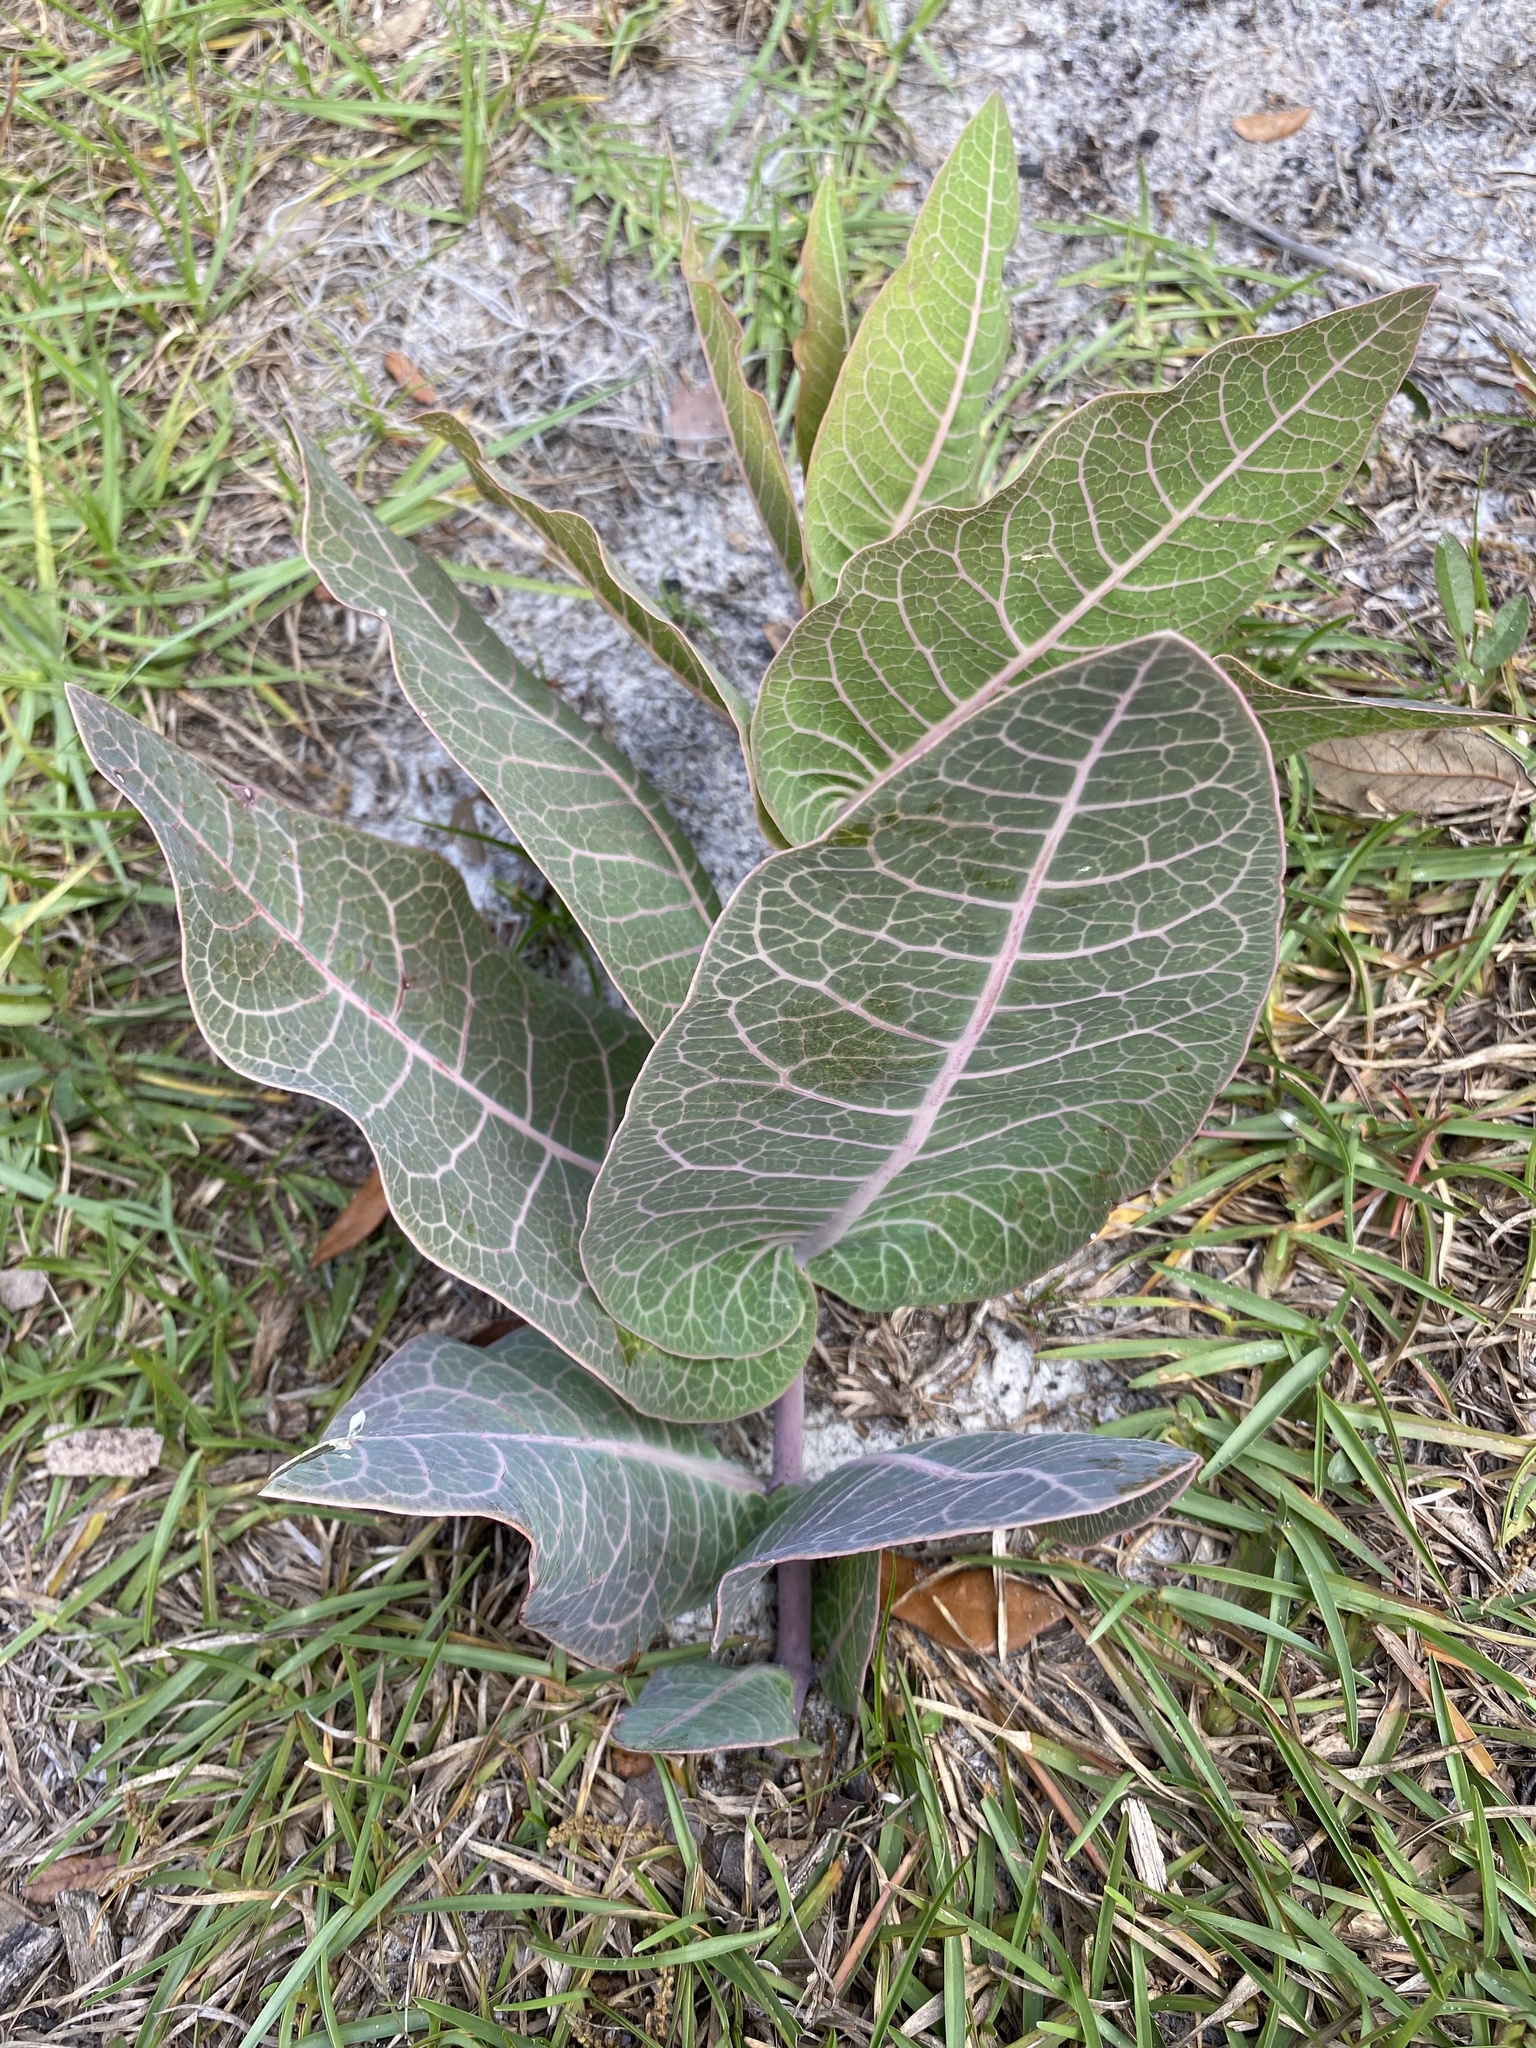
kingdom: Plantae
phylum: Tracheophyta
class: Magnoliopsida
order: Gentianales
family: Apocynaceae
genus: Asclepias
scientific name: Asclepias humistrata
